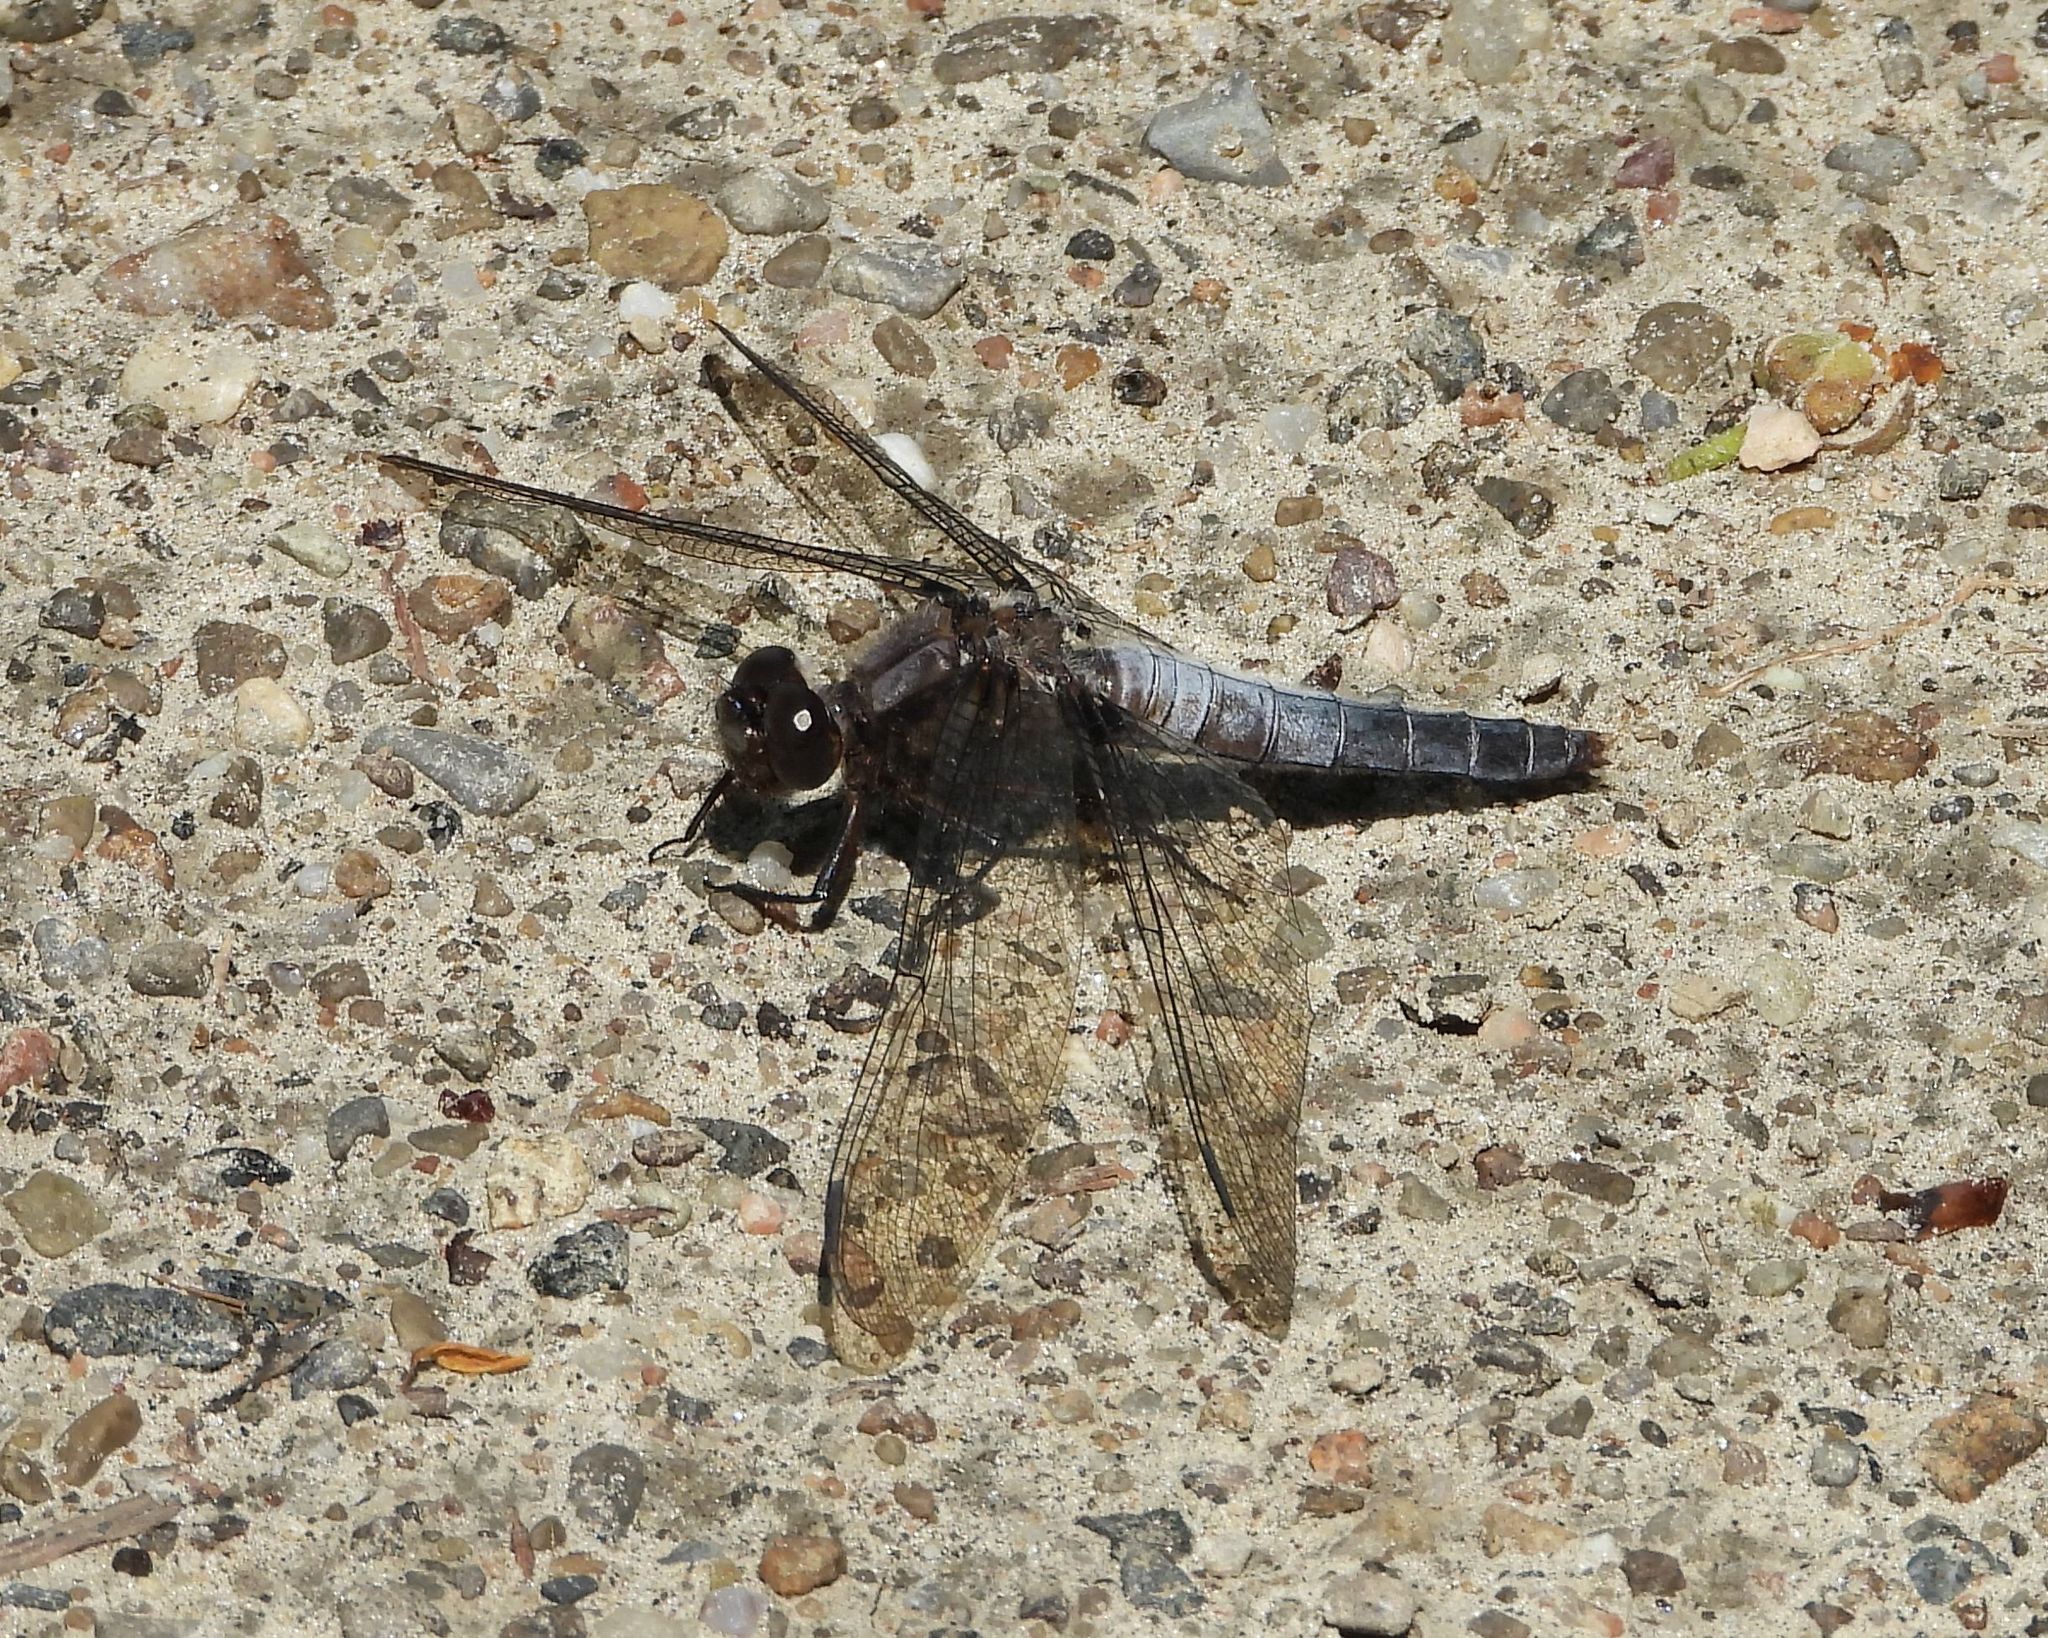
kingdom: Animalia
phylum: Arthropoda
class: Insecta
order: Odonata
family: Libellulidae
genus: Ladona
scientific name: Ladona julia
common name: Chalk-fronted corporal
